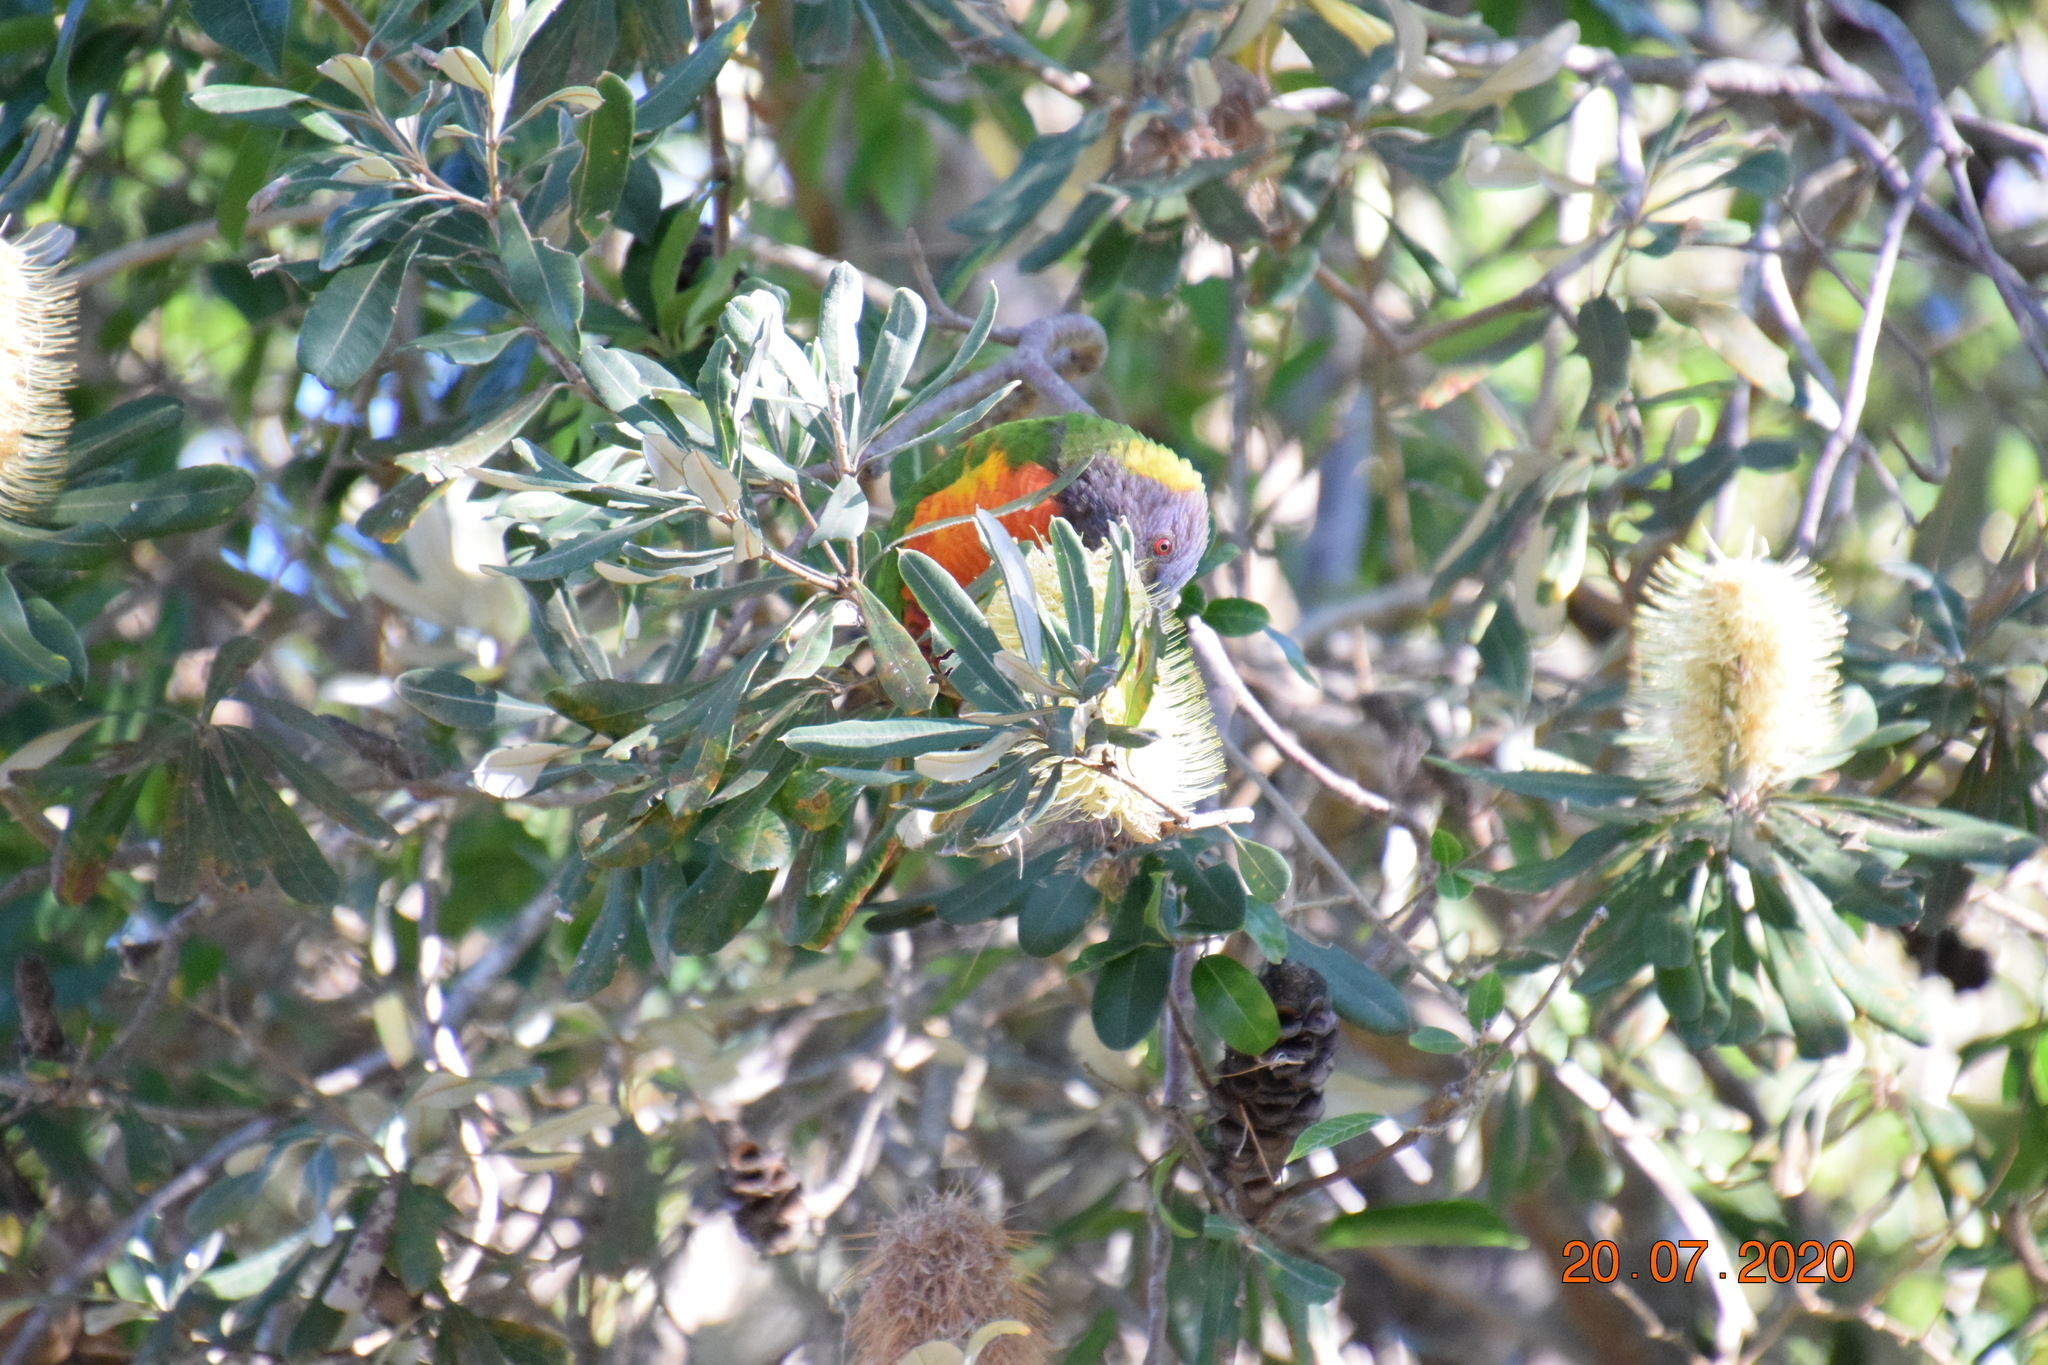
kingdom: Animalia
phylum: Chordata
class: Aves
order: Psittaciformes
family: Psittacidae
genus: Trichoglossus
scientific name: Trichoglossus haematodus
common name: Coconut lorikeet
